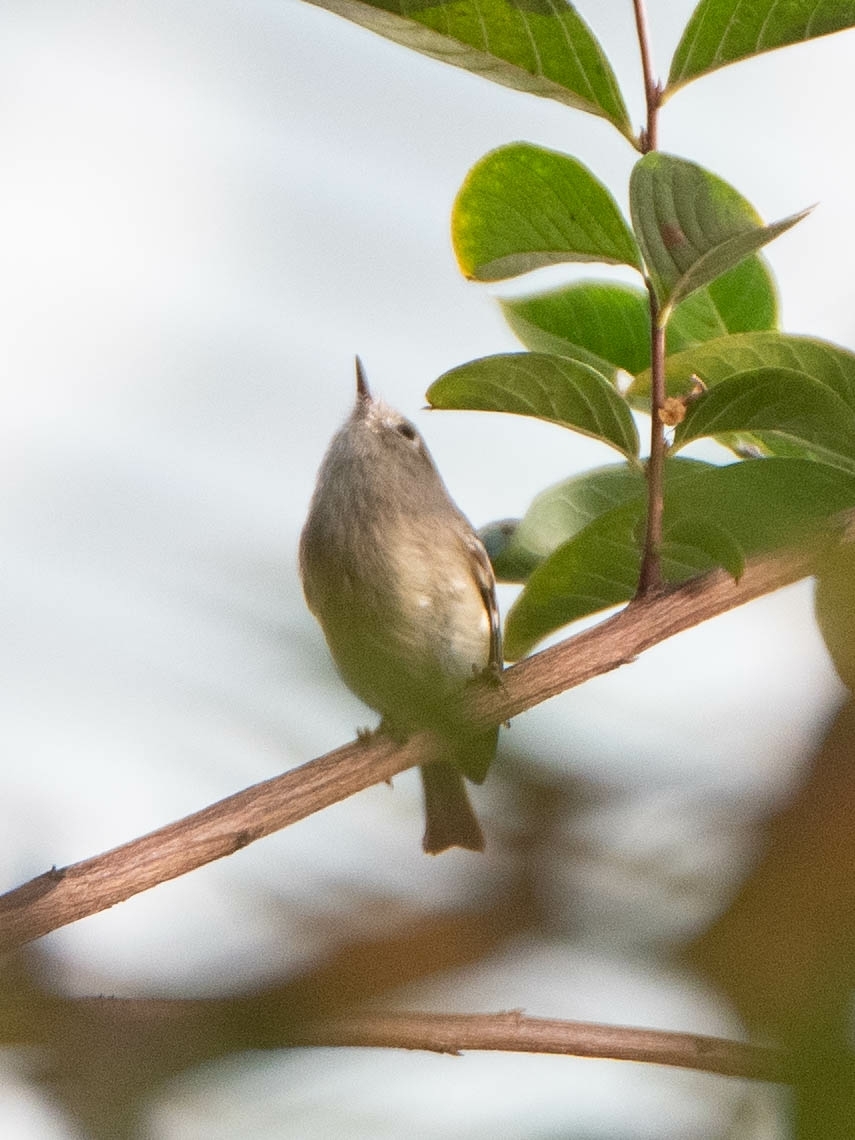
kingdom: Animalia
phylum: Chordata
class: Aves
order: Passeriformes
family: Regulidae
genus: Regulus
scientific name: Regulus calendula
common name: Ruby-crowned kinglet
